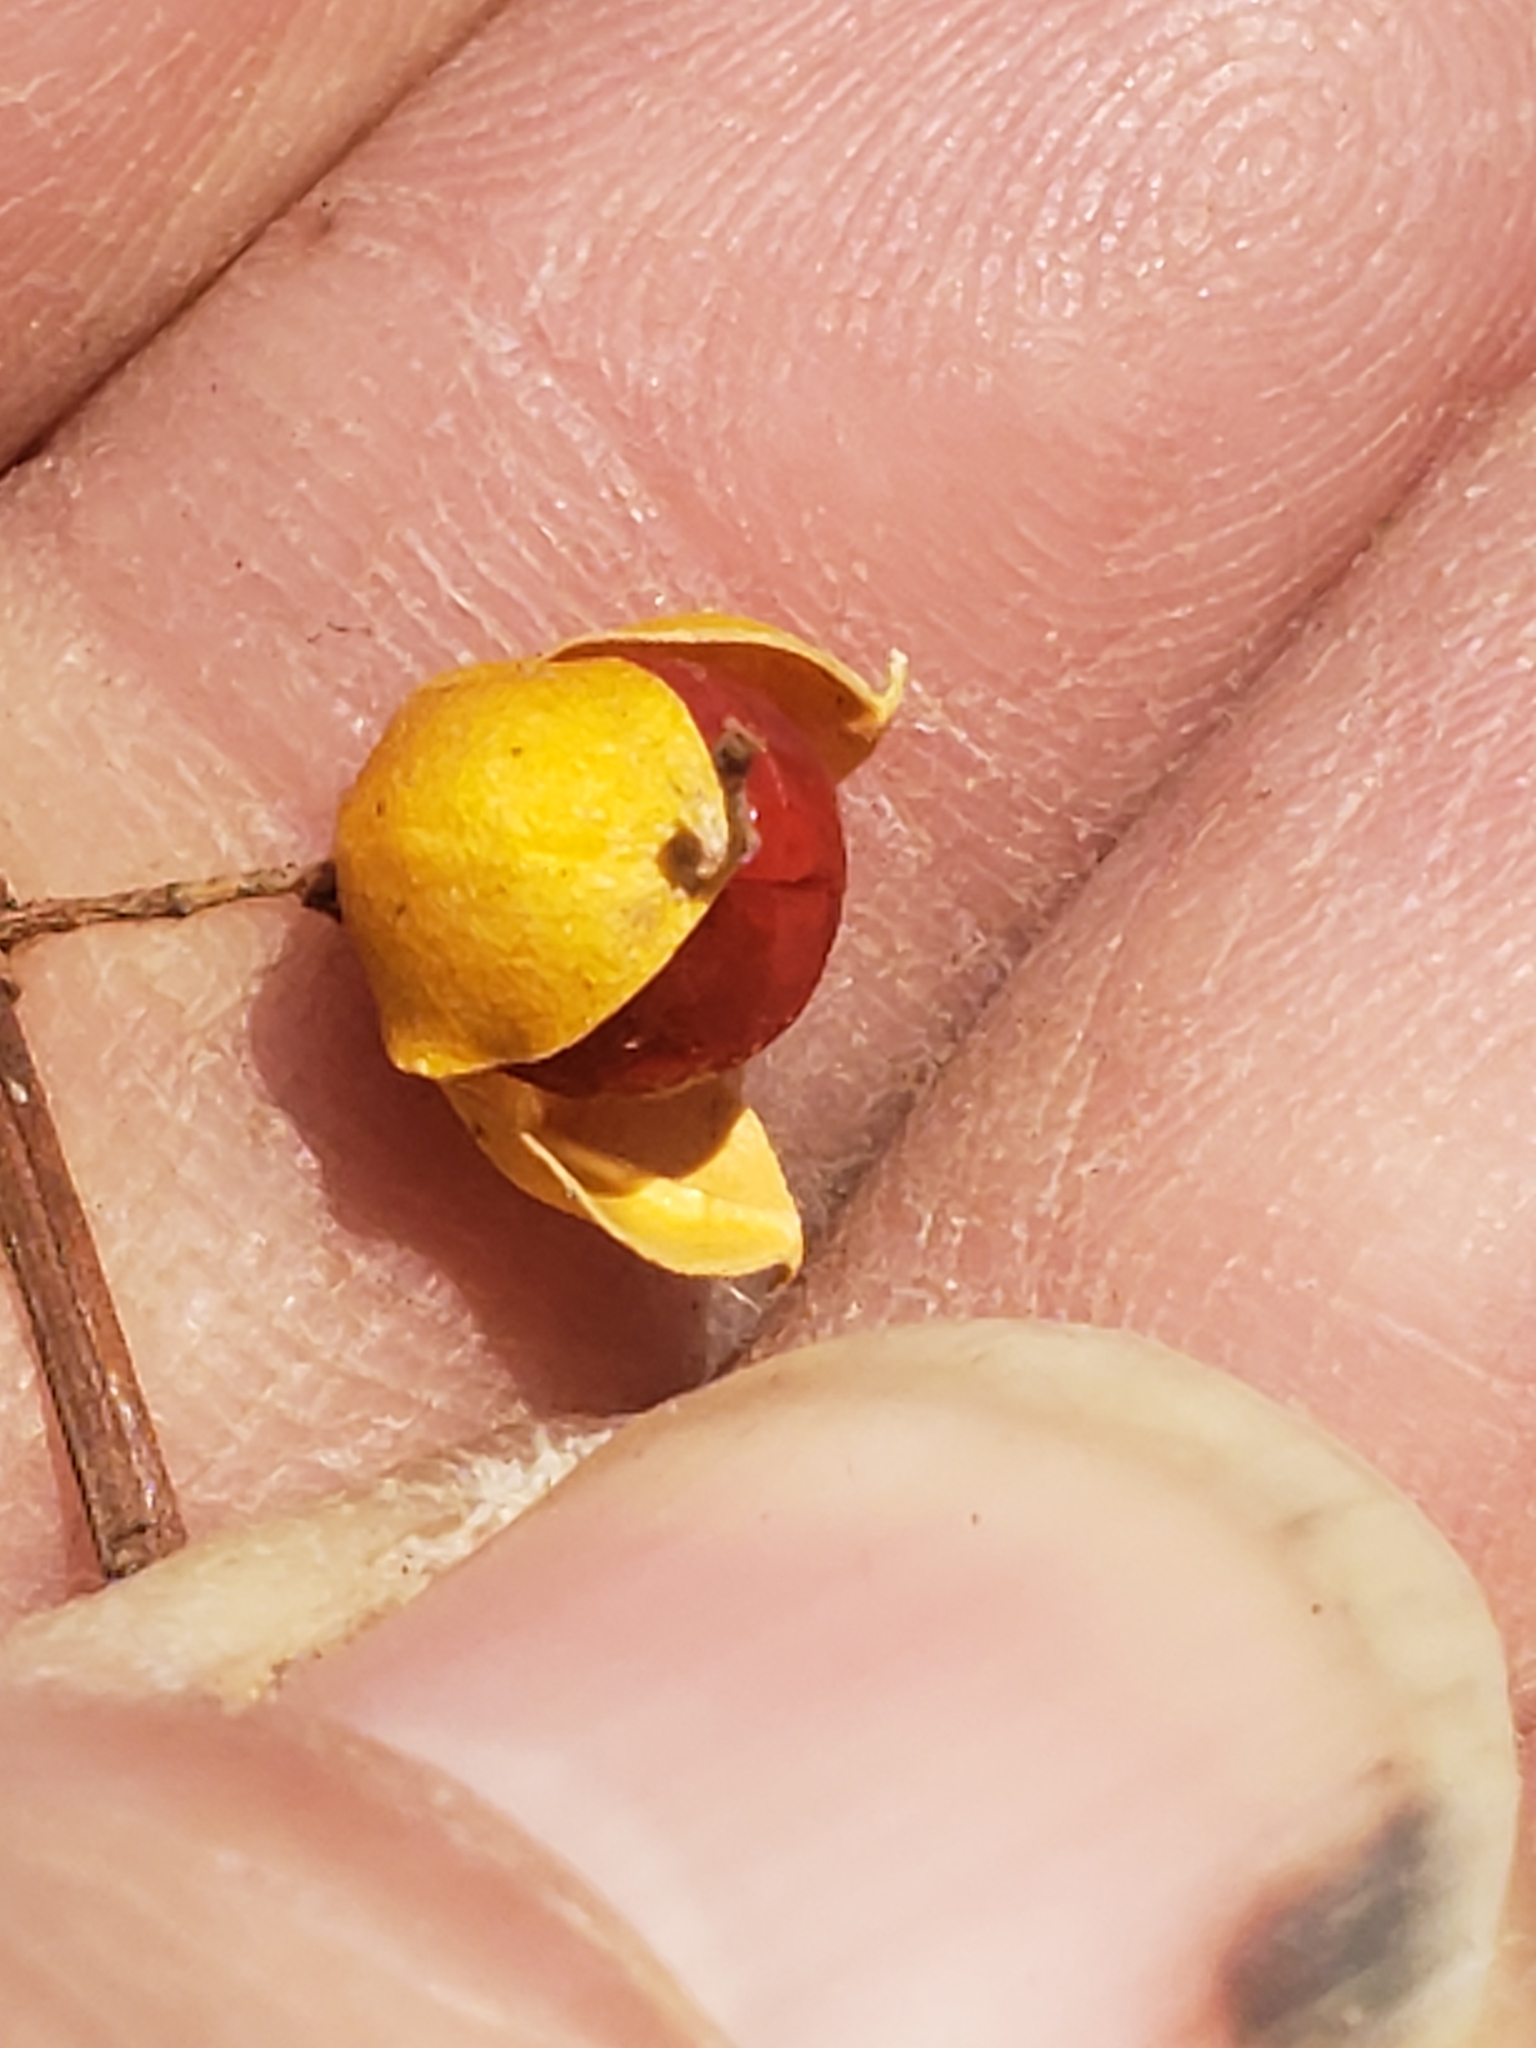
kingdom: Plantae
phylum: Tracheophyta
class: Magnoliopsida
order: Celastrales
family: Celastraceae
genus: Celastrus
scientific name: Celastrus orbiculatus
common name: Oriental bittersweet
